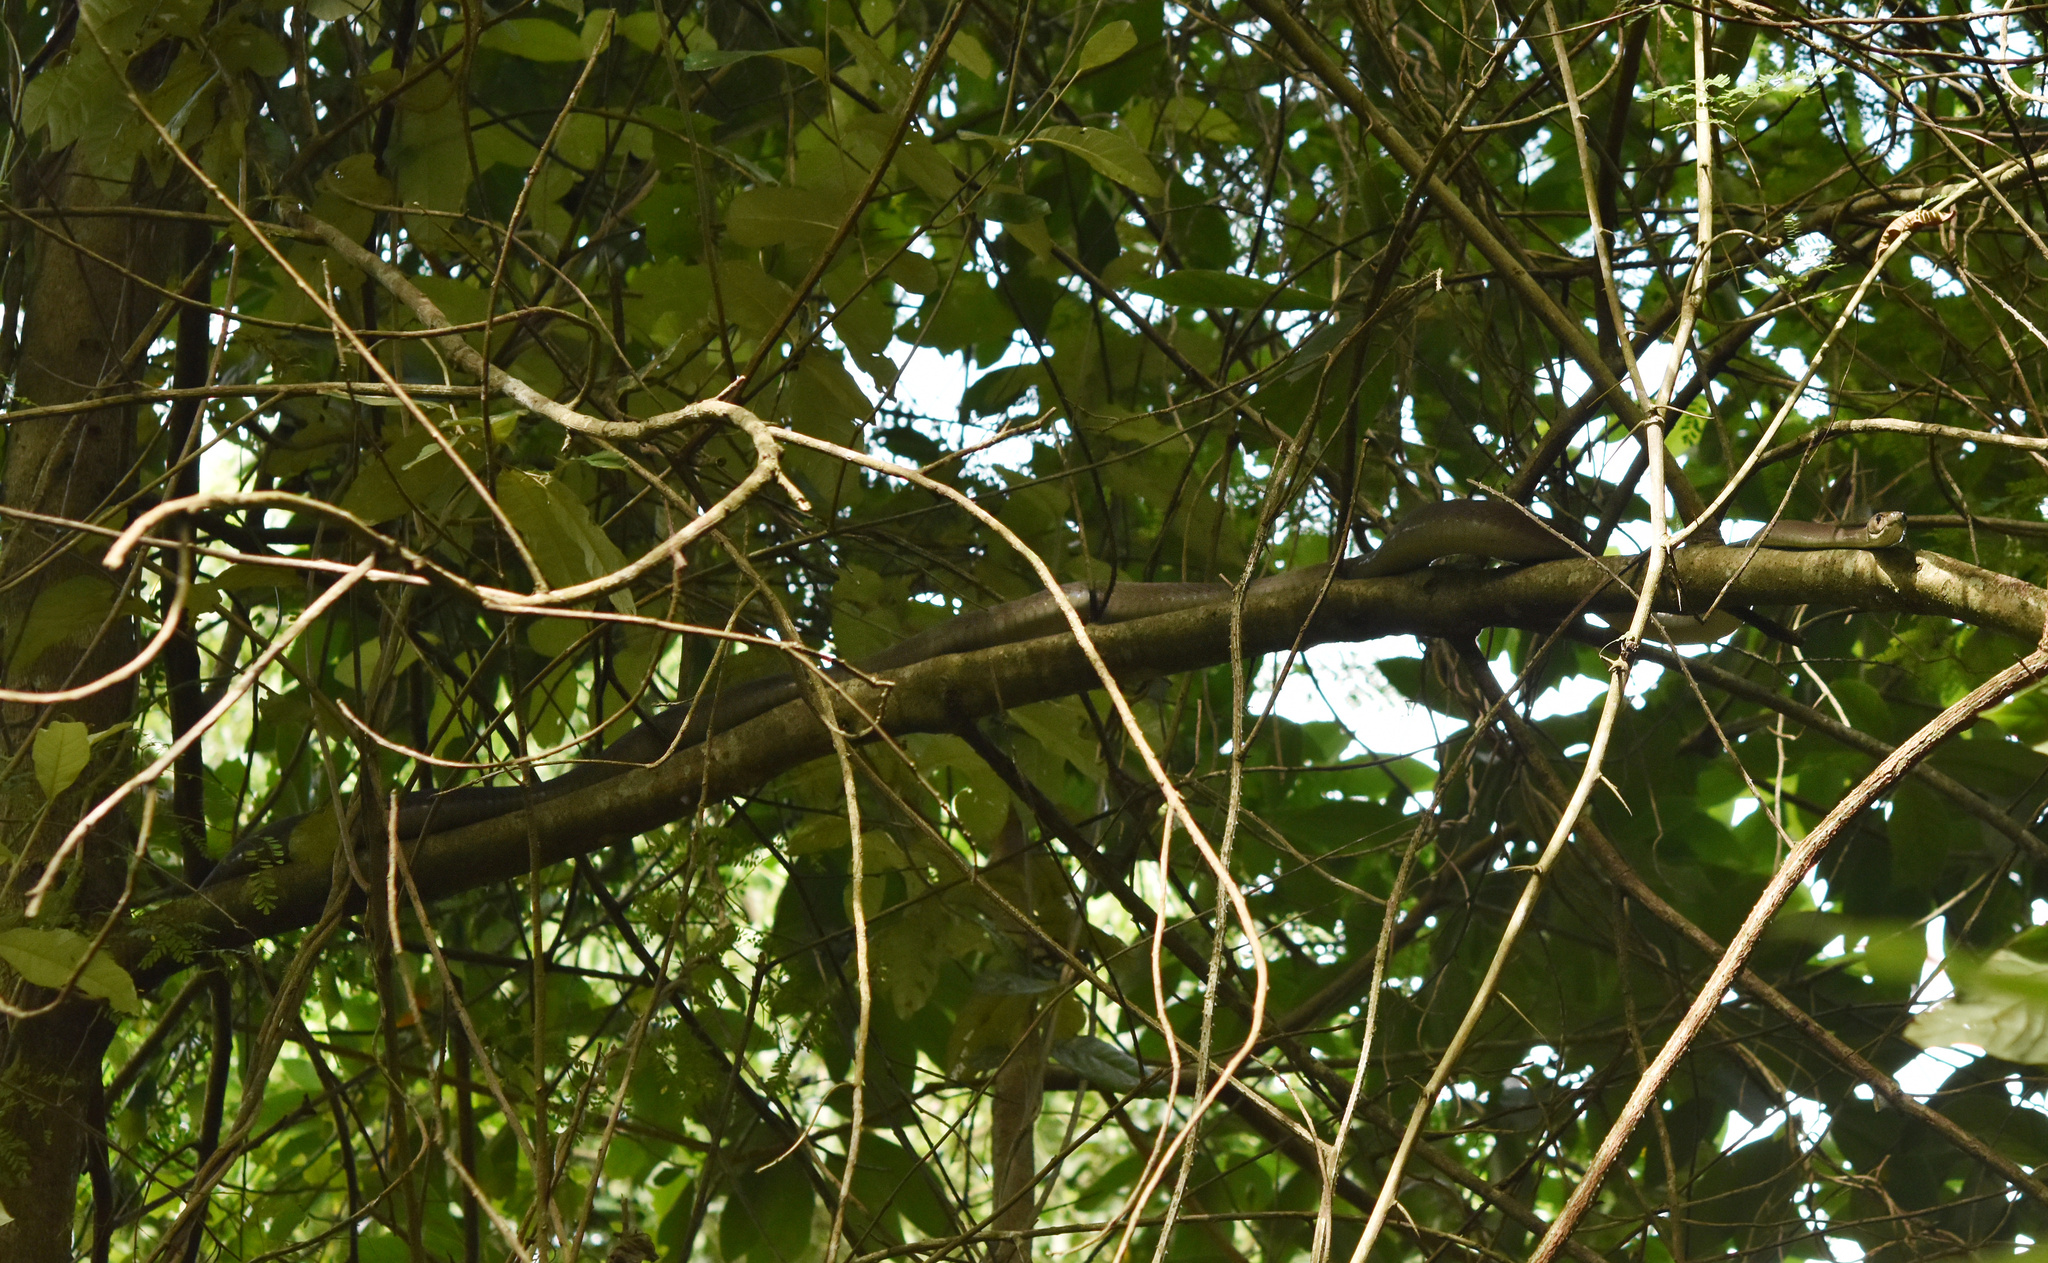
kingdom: Animalia
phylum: Chordata
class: Squamata
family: Elapidae
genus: Dendroaspis
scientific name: Dendroaspis polylepis
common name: Black mamba
